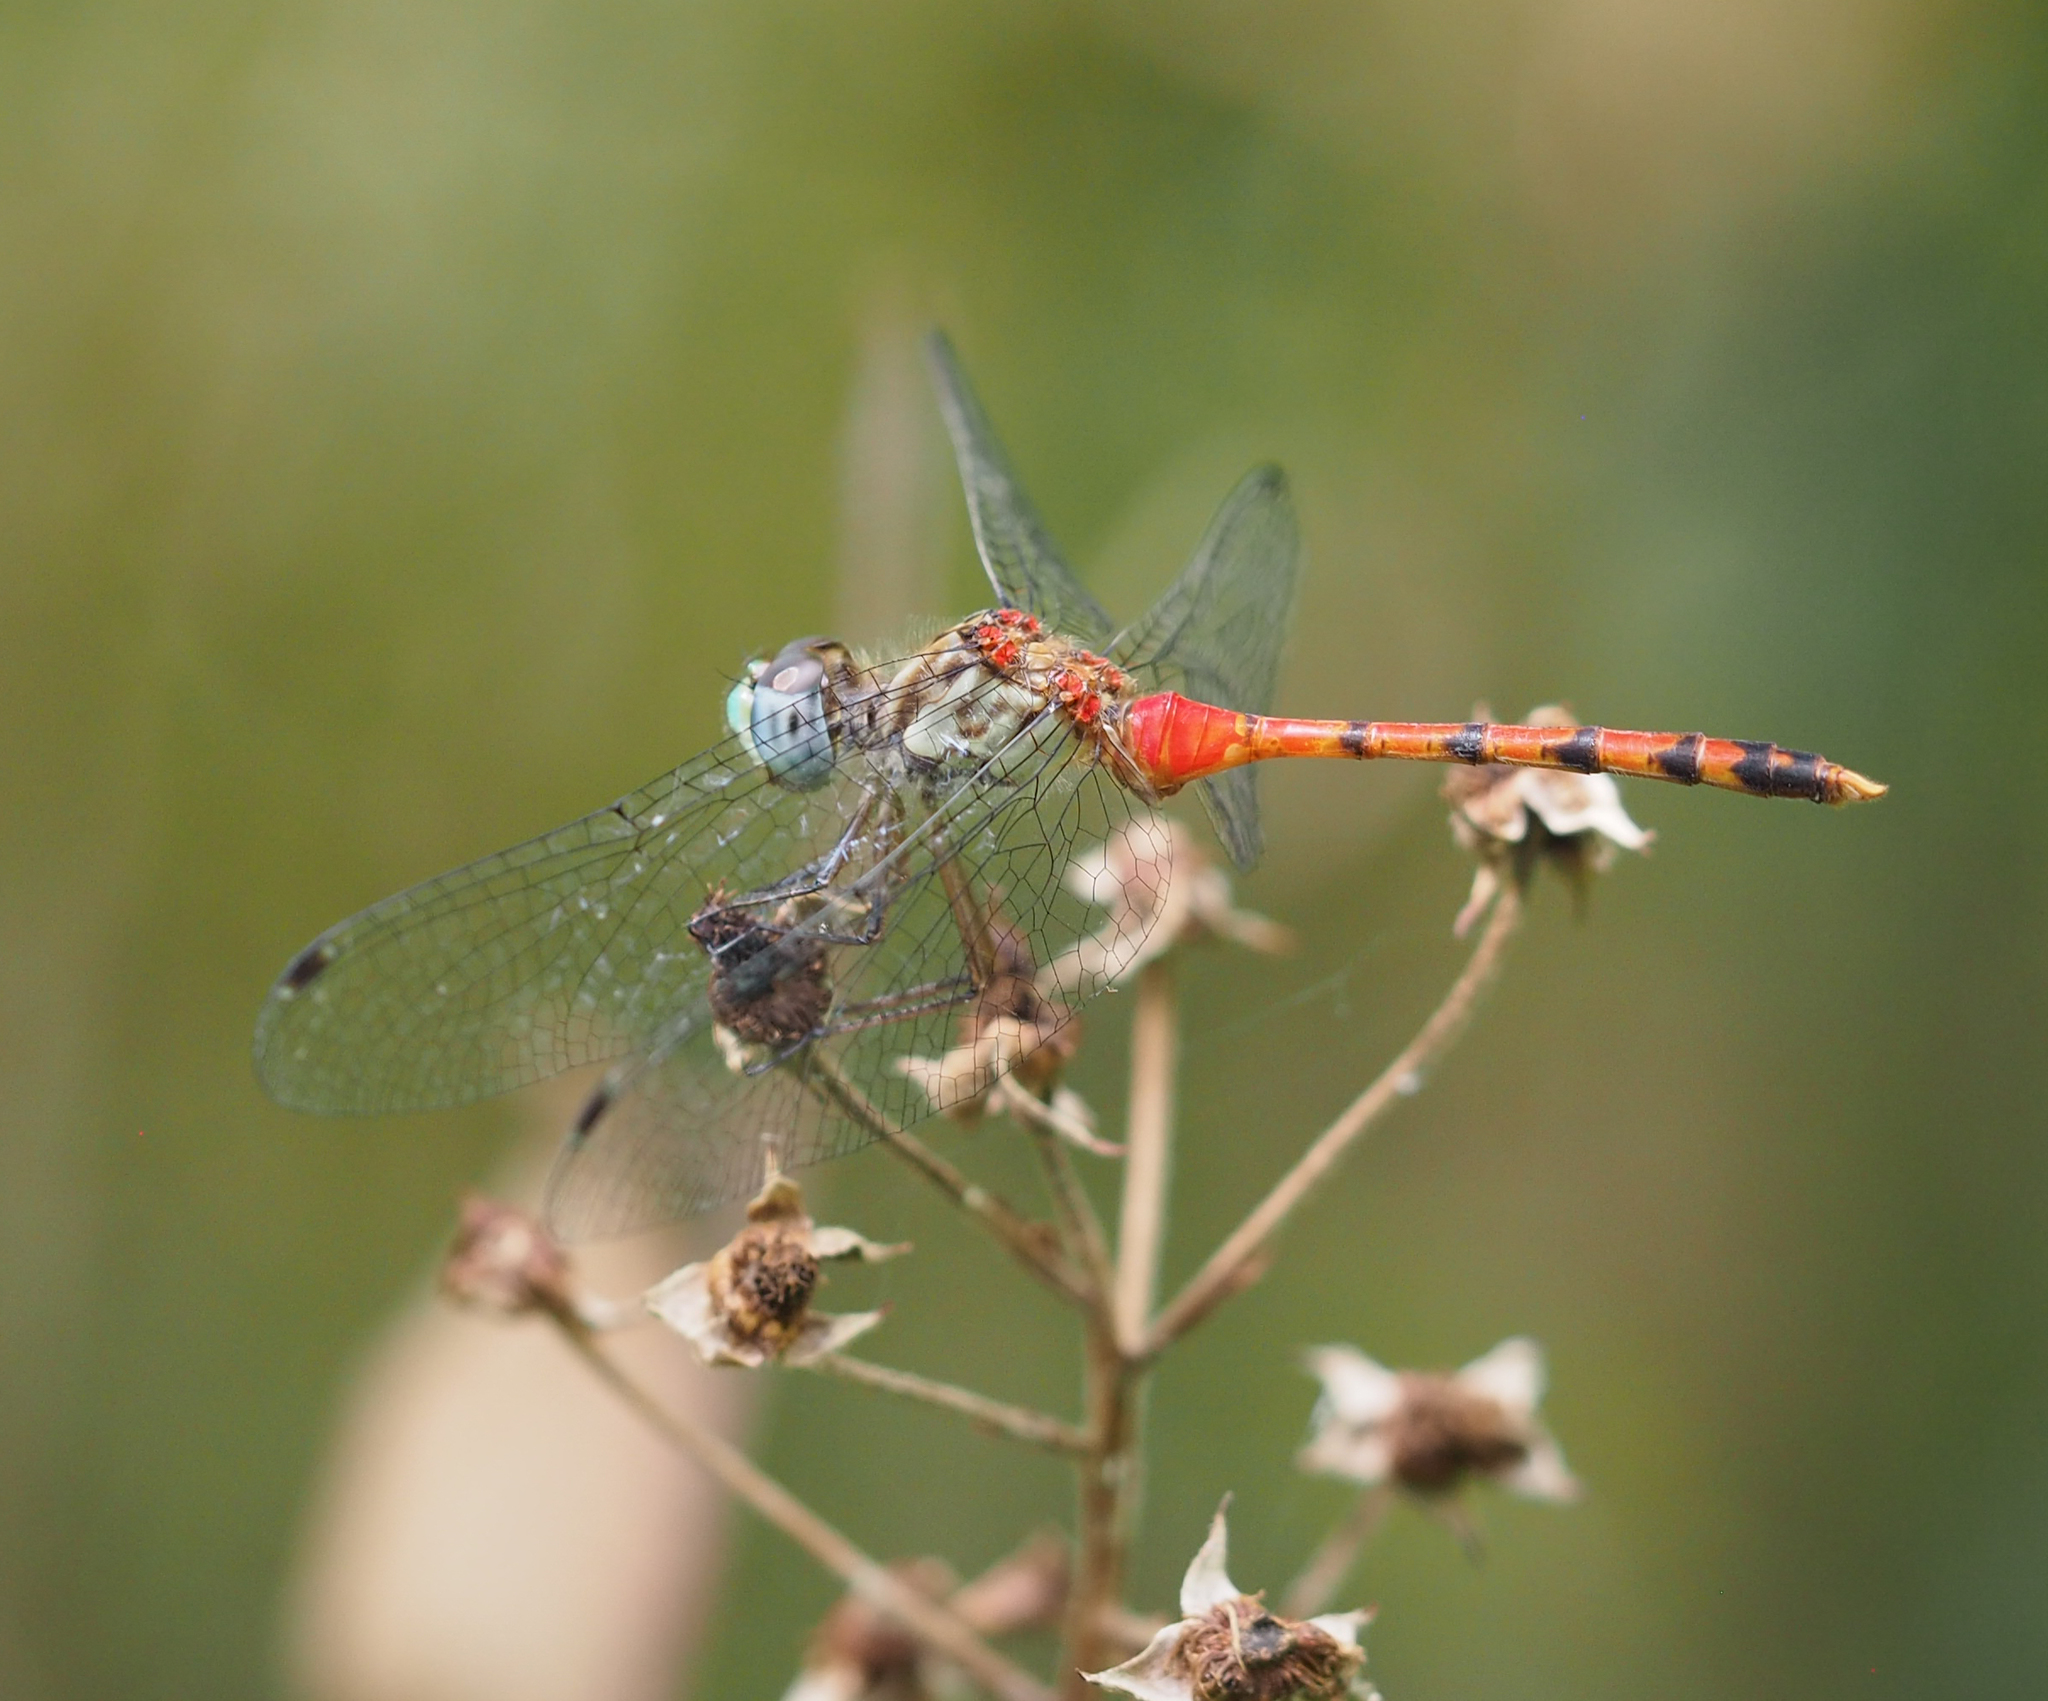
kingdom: Animalia
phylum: Arthropoda
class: Insecta
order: Odonata
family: Libellulidae
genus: Sympetrum
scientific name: Sympetrum ambiguum
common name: Blue-faced meadowhawk
